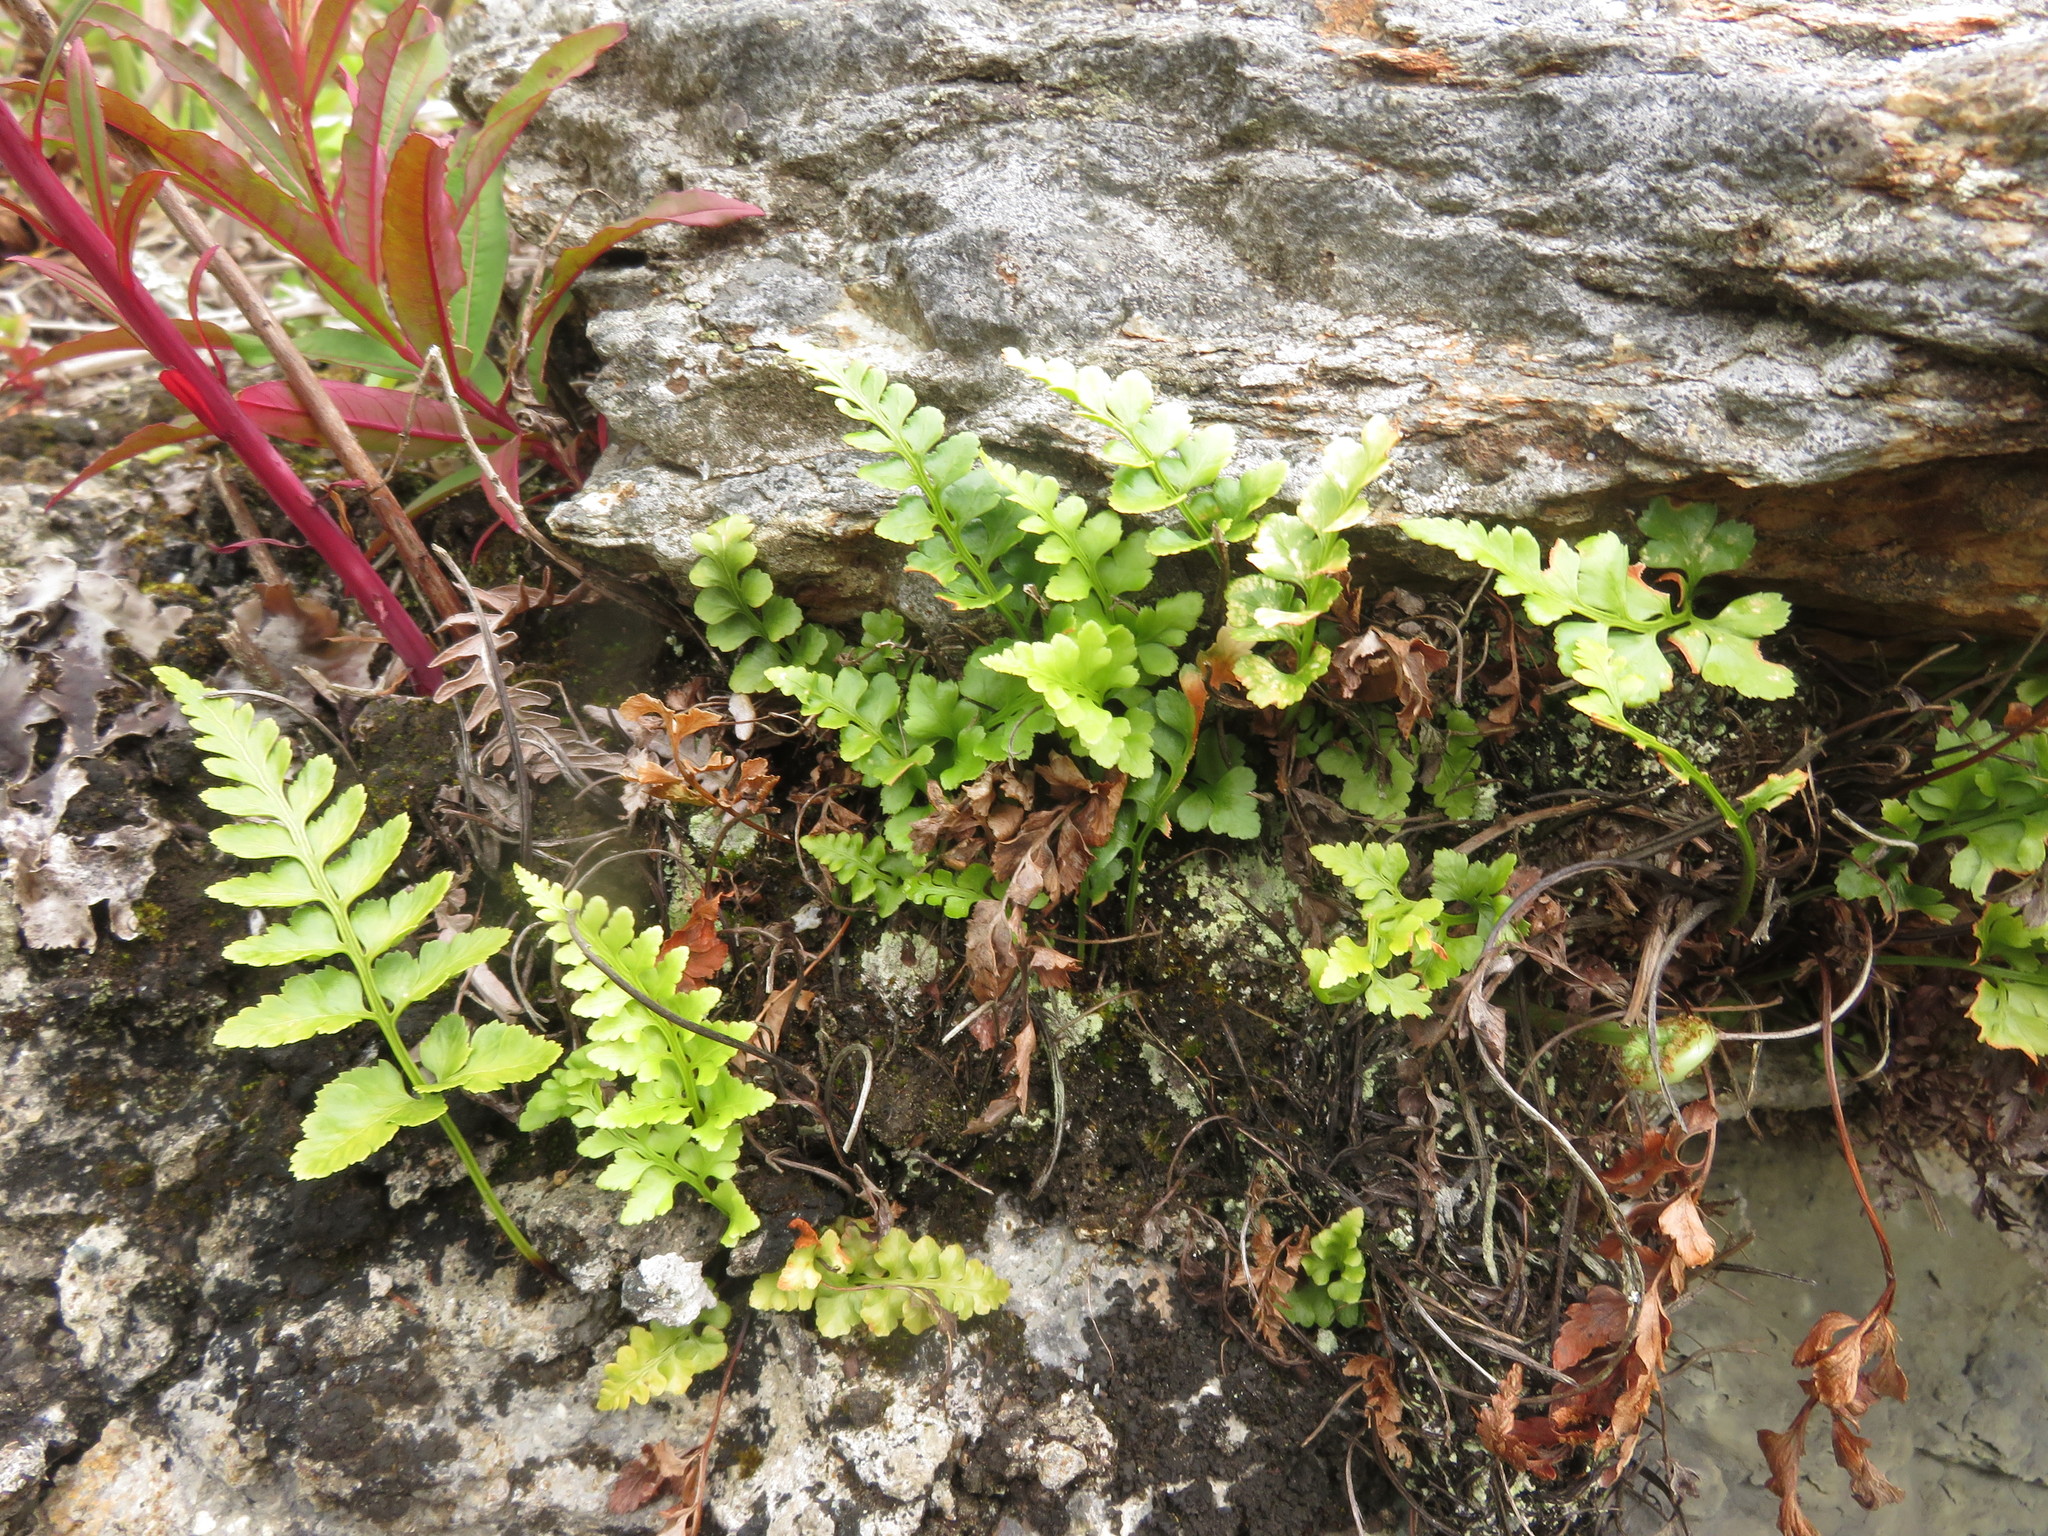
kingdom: Plantae
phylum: Tracheophyta
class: Polypodiopsida
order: Polypodiales
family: Aspleniaceae
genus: Asplenium
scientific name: Asplenium adiantum-nigrum
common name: Black spleenwort
